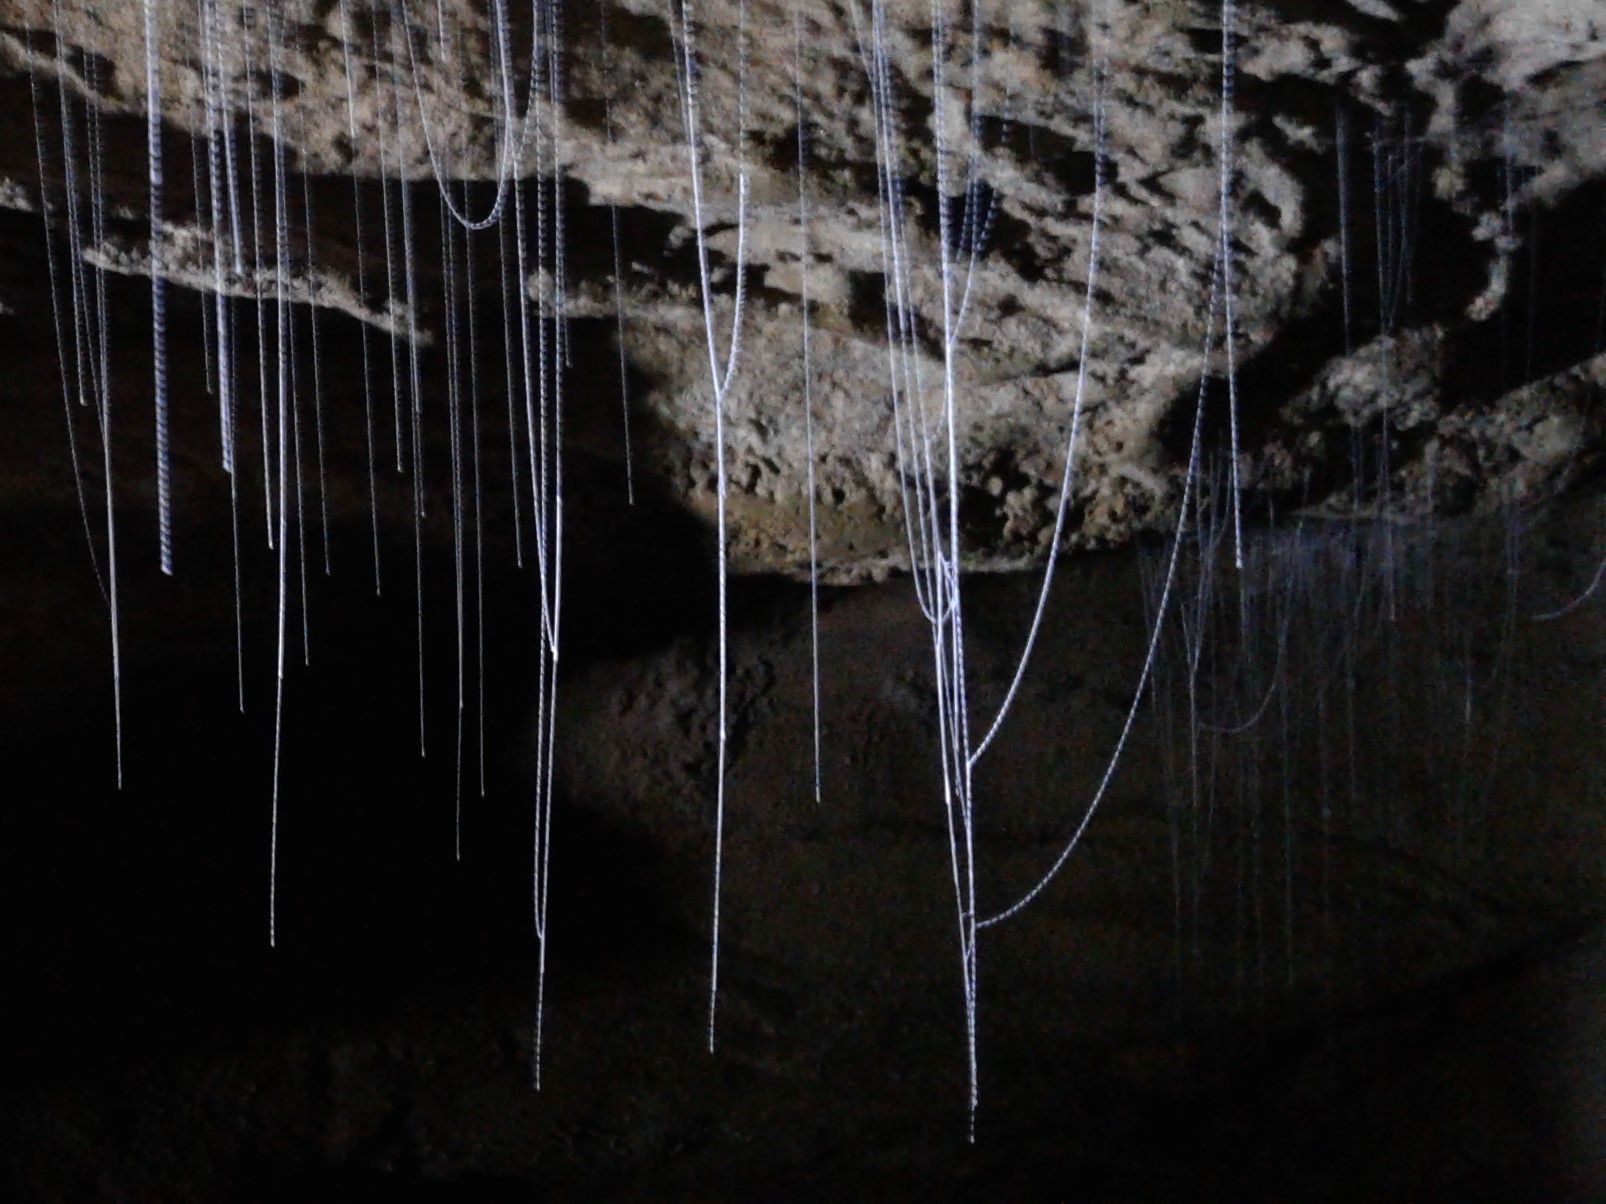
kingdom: Animalia
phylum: Arthropoda
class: Insecta
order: Diptera
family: Keroplatidae
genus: Arachnocampa
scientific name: Arachnocampa luminosa
